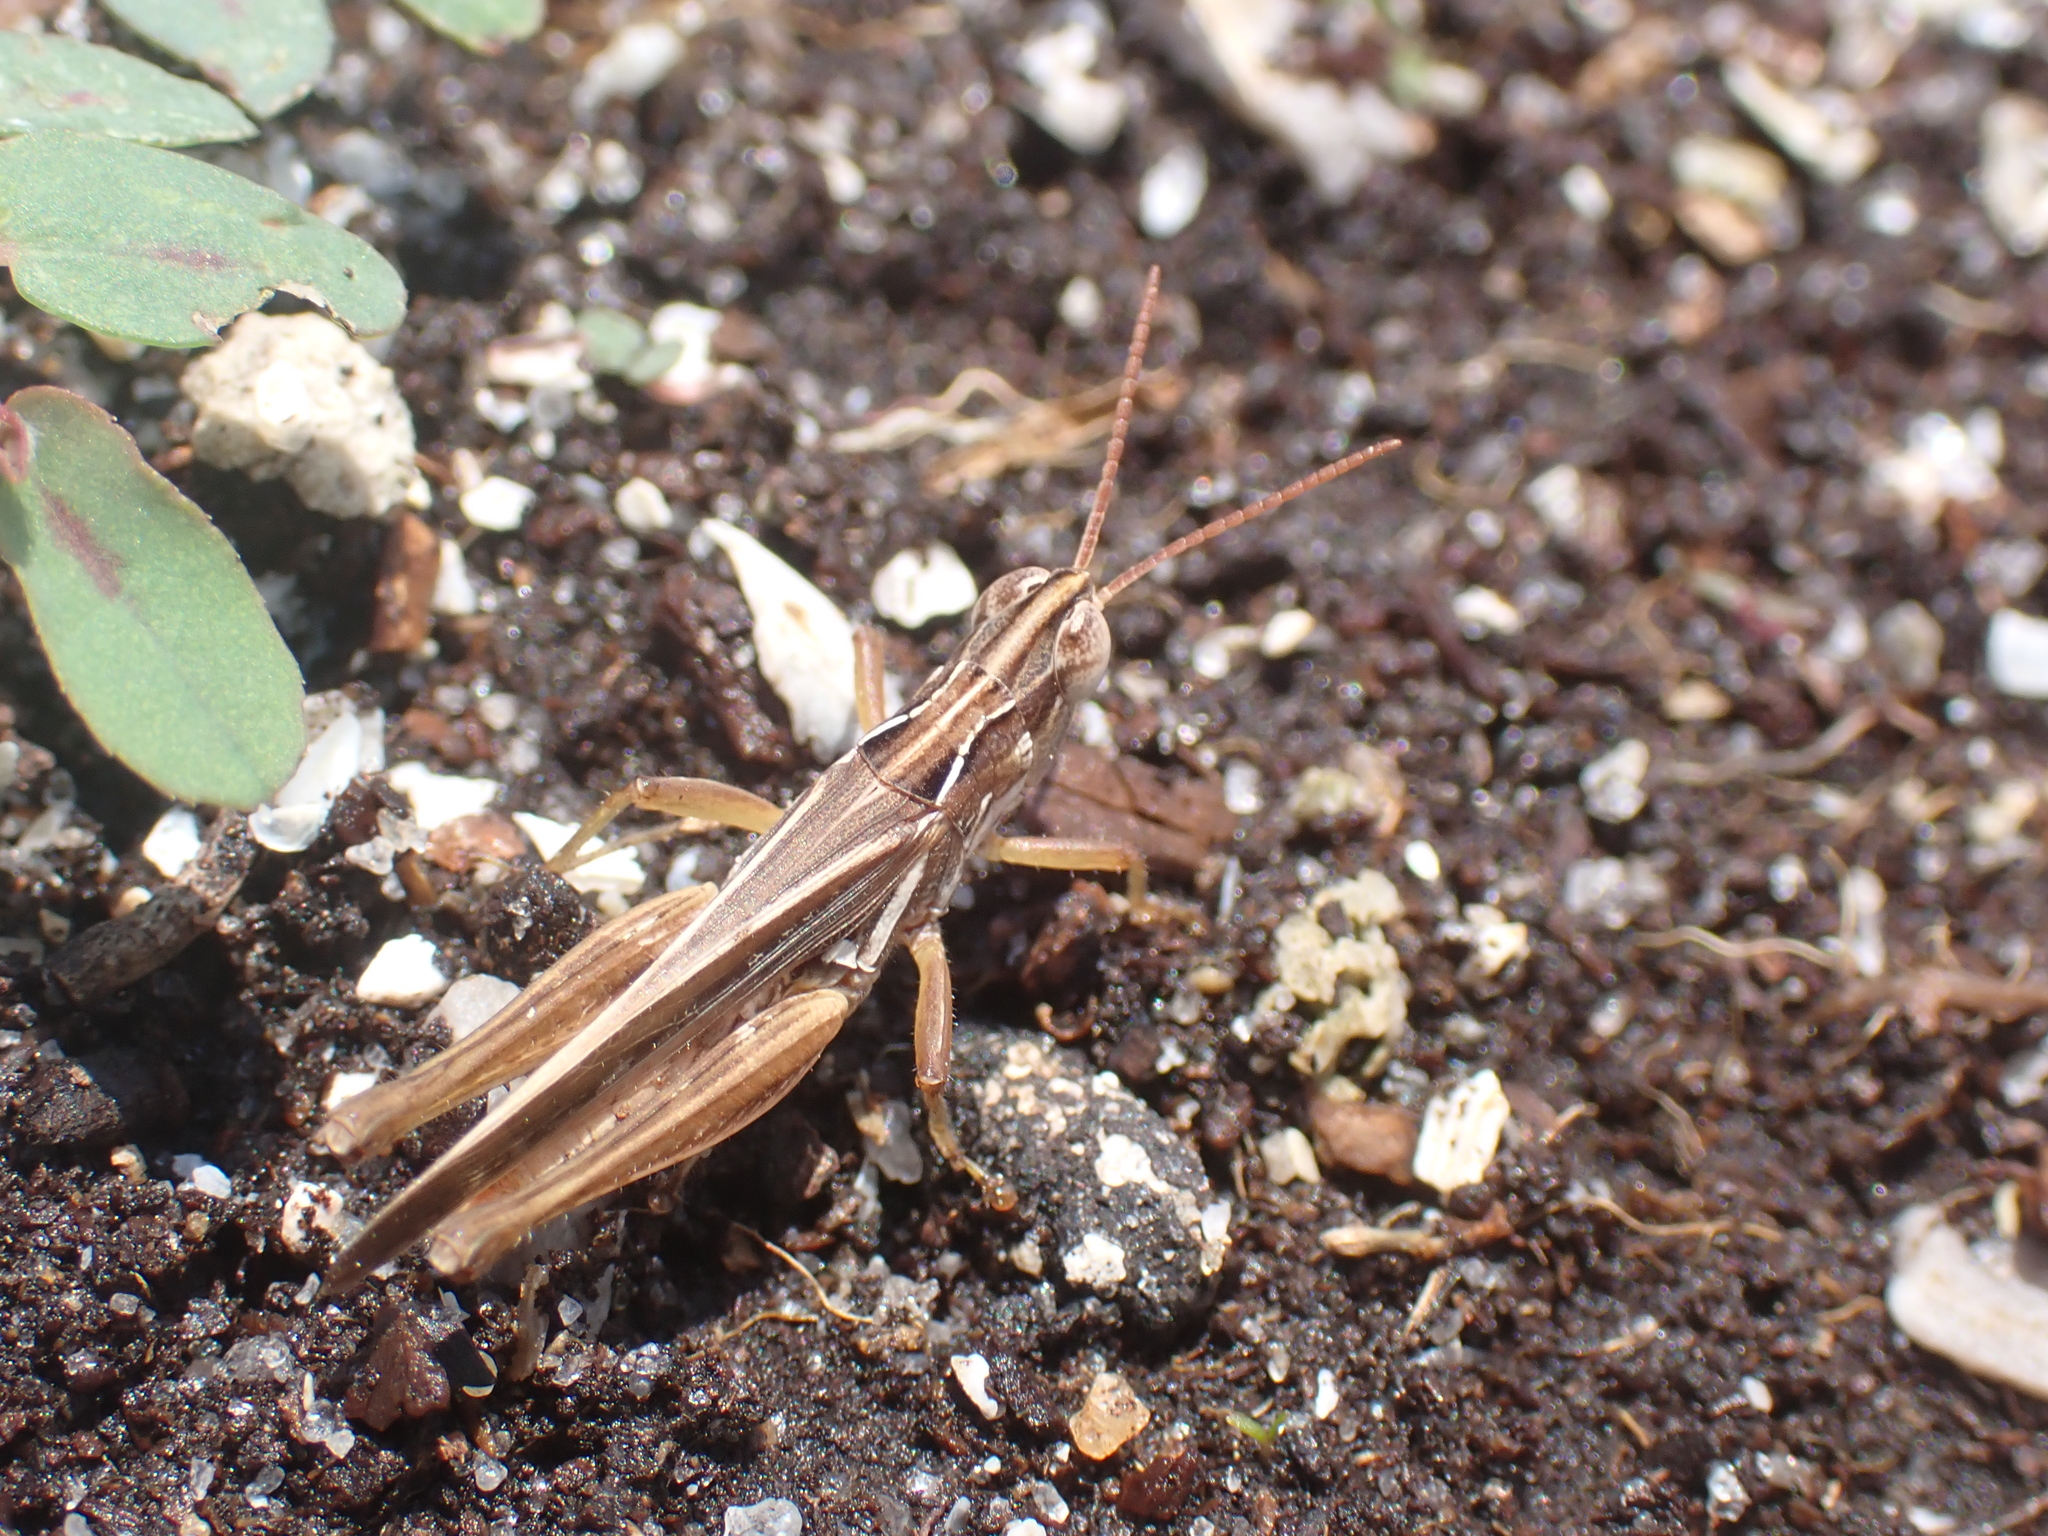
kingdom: Animalia
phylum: Arthropoda
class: Insecta
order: Orthoptera
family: Acrididae
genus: Orphulella
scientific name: Orphulella pelidna
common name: Spotted-wing grasshopper
